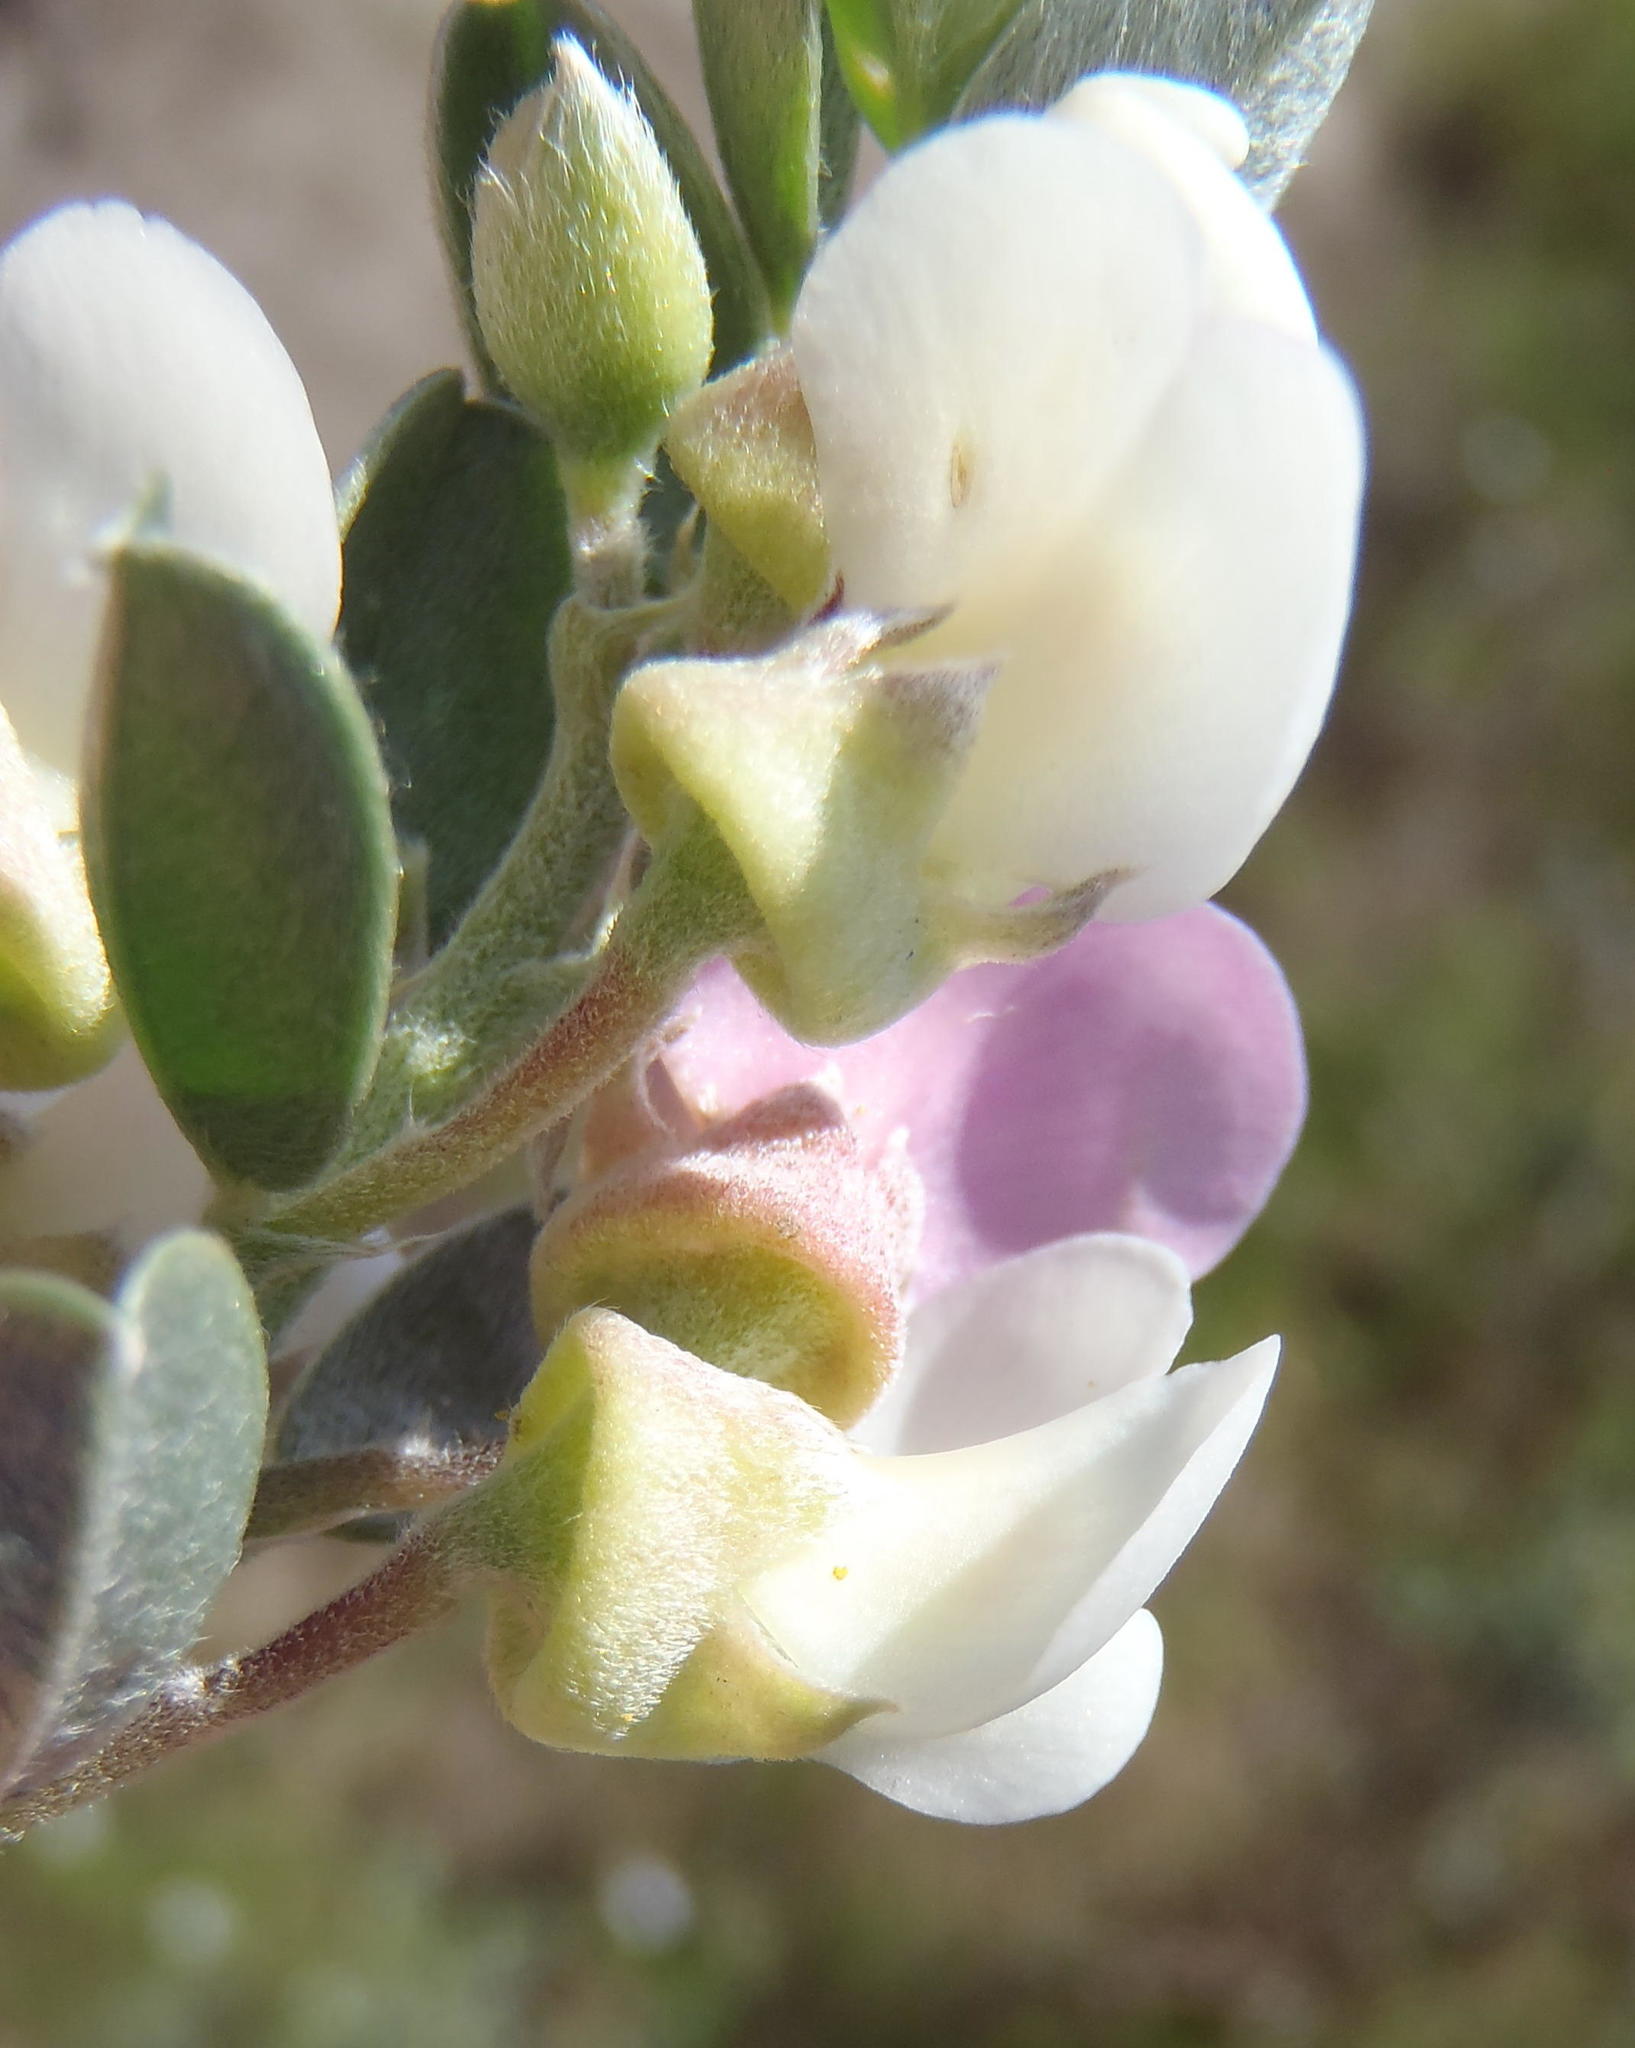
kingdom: Plantae
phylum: Tracheophyta
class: Magnoliopsida
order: Fabales
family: Fabaceae
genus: Podalyria
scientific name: Podalyria myrtillifolia
